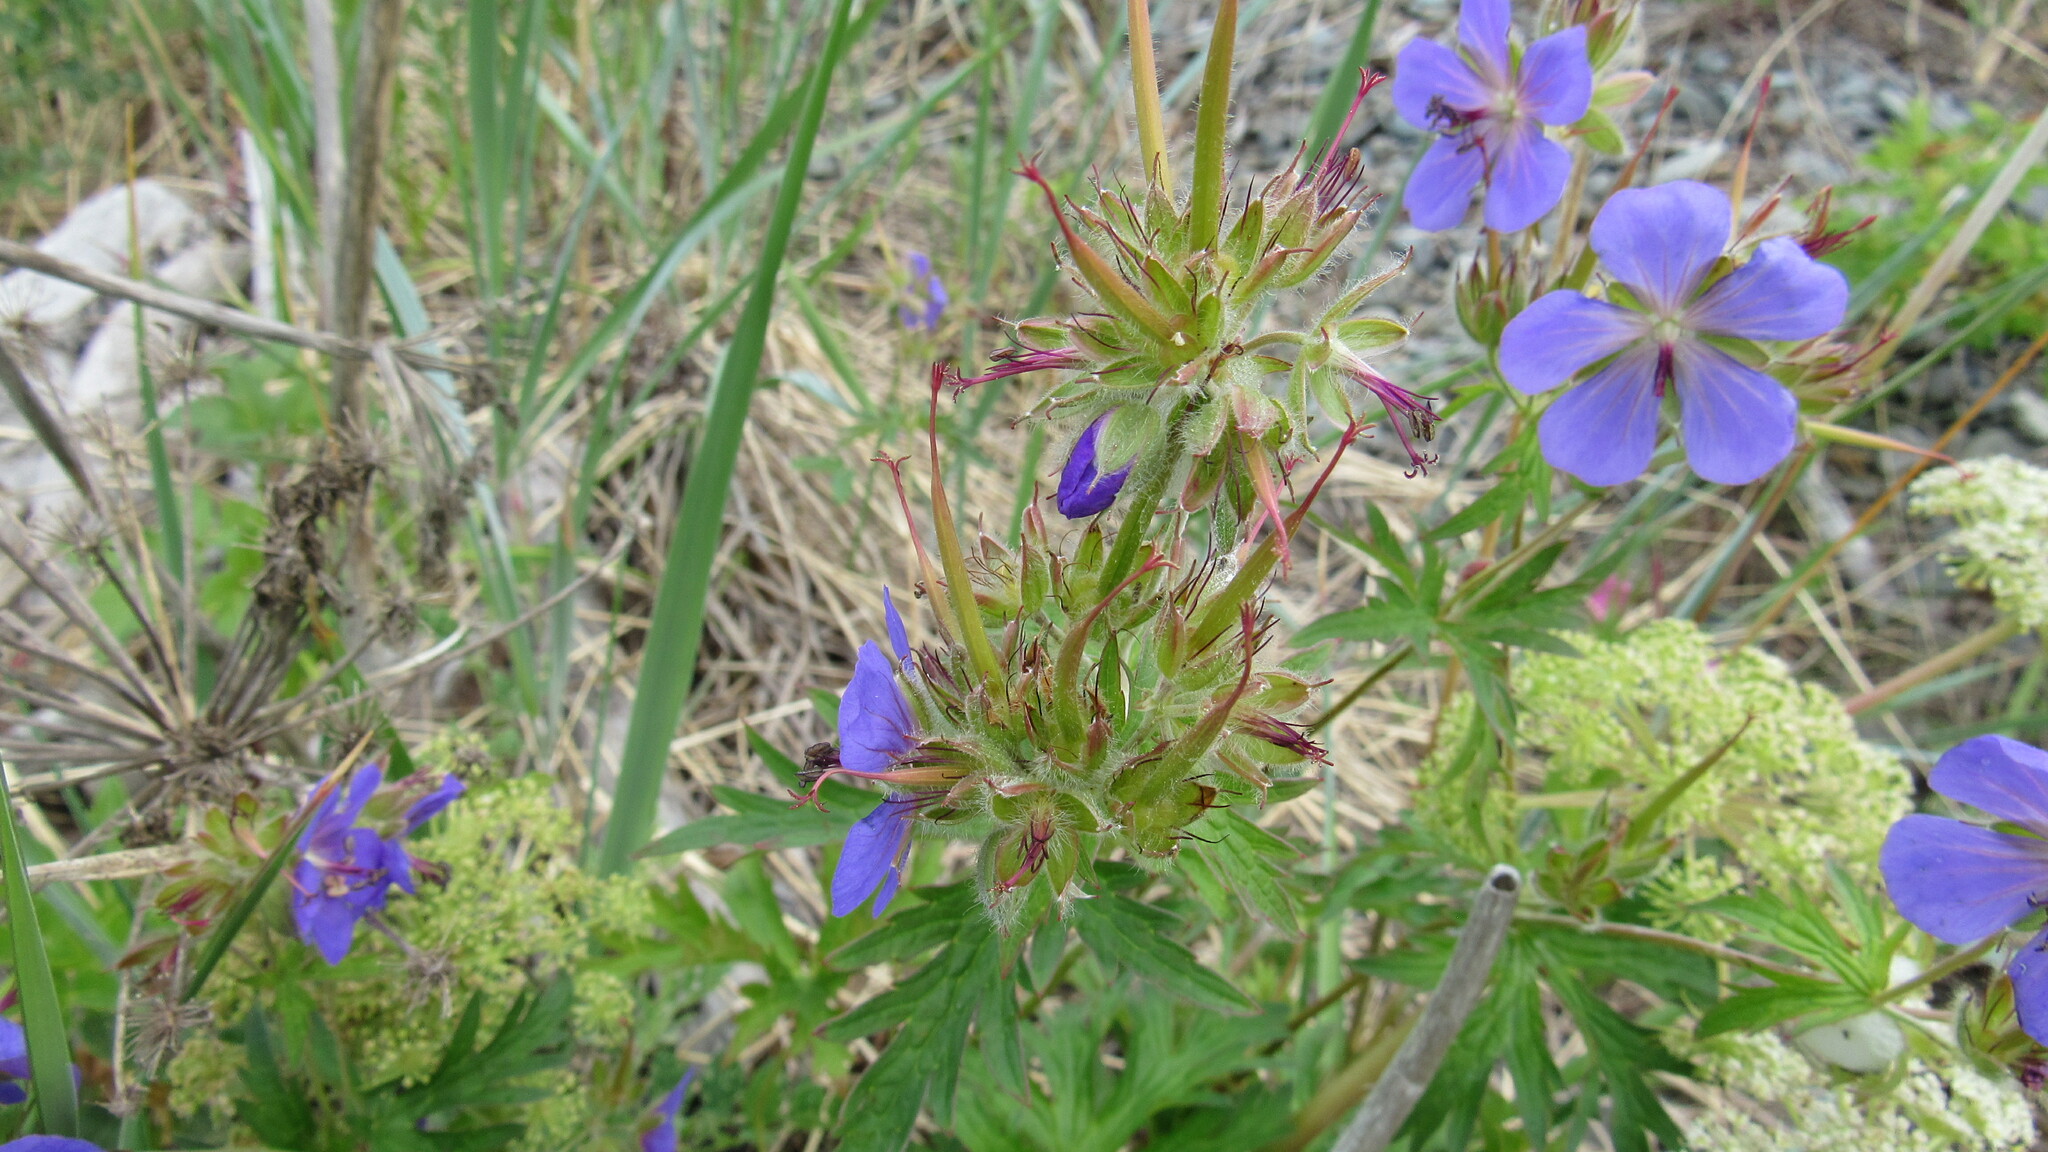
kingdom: Plantae
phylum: Tracheophyta
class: Magnoliopsida
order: Geraniales
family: Geraniaceae
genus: Geranium
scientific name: Geranium erianthum
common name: Northern crane's-bill
